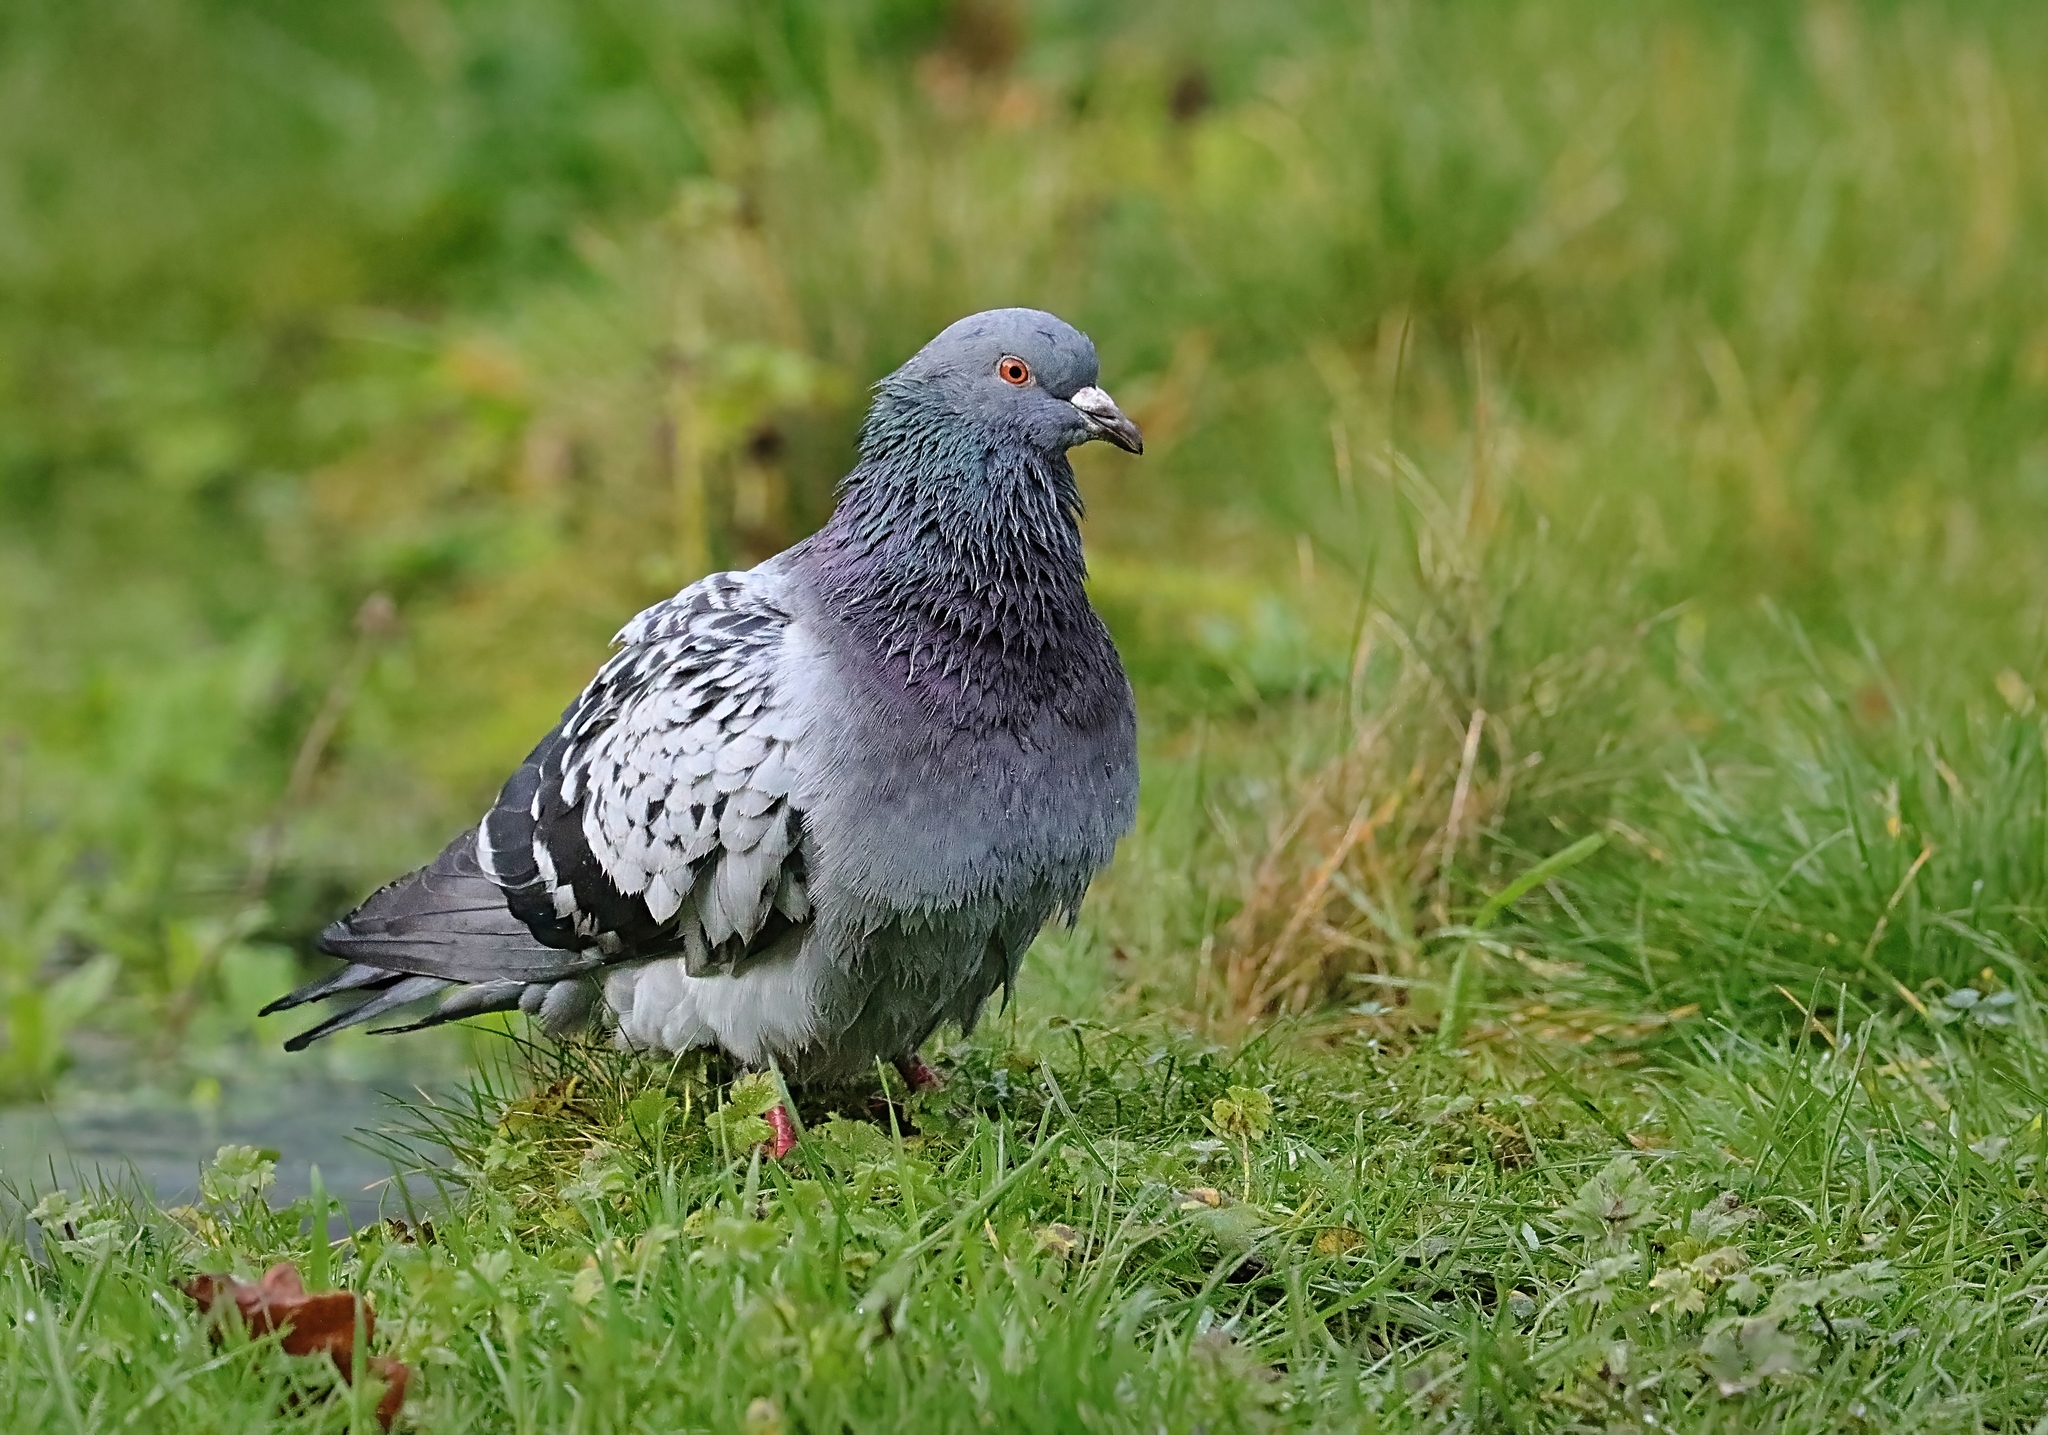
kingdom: Animalia
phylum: Chordata
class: Aves
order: Columbiformes
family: Columbidae
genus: Columba
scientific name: Columba livia
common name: Rock pigeon
